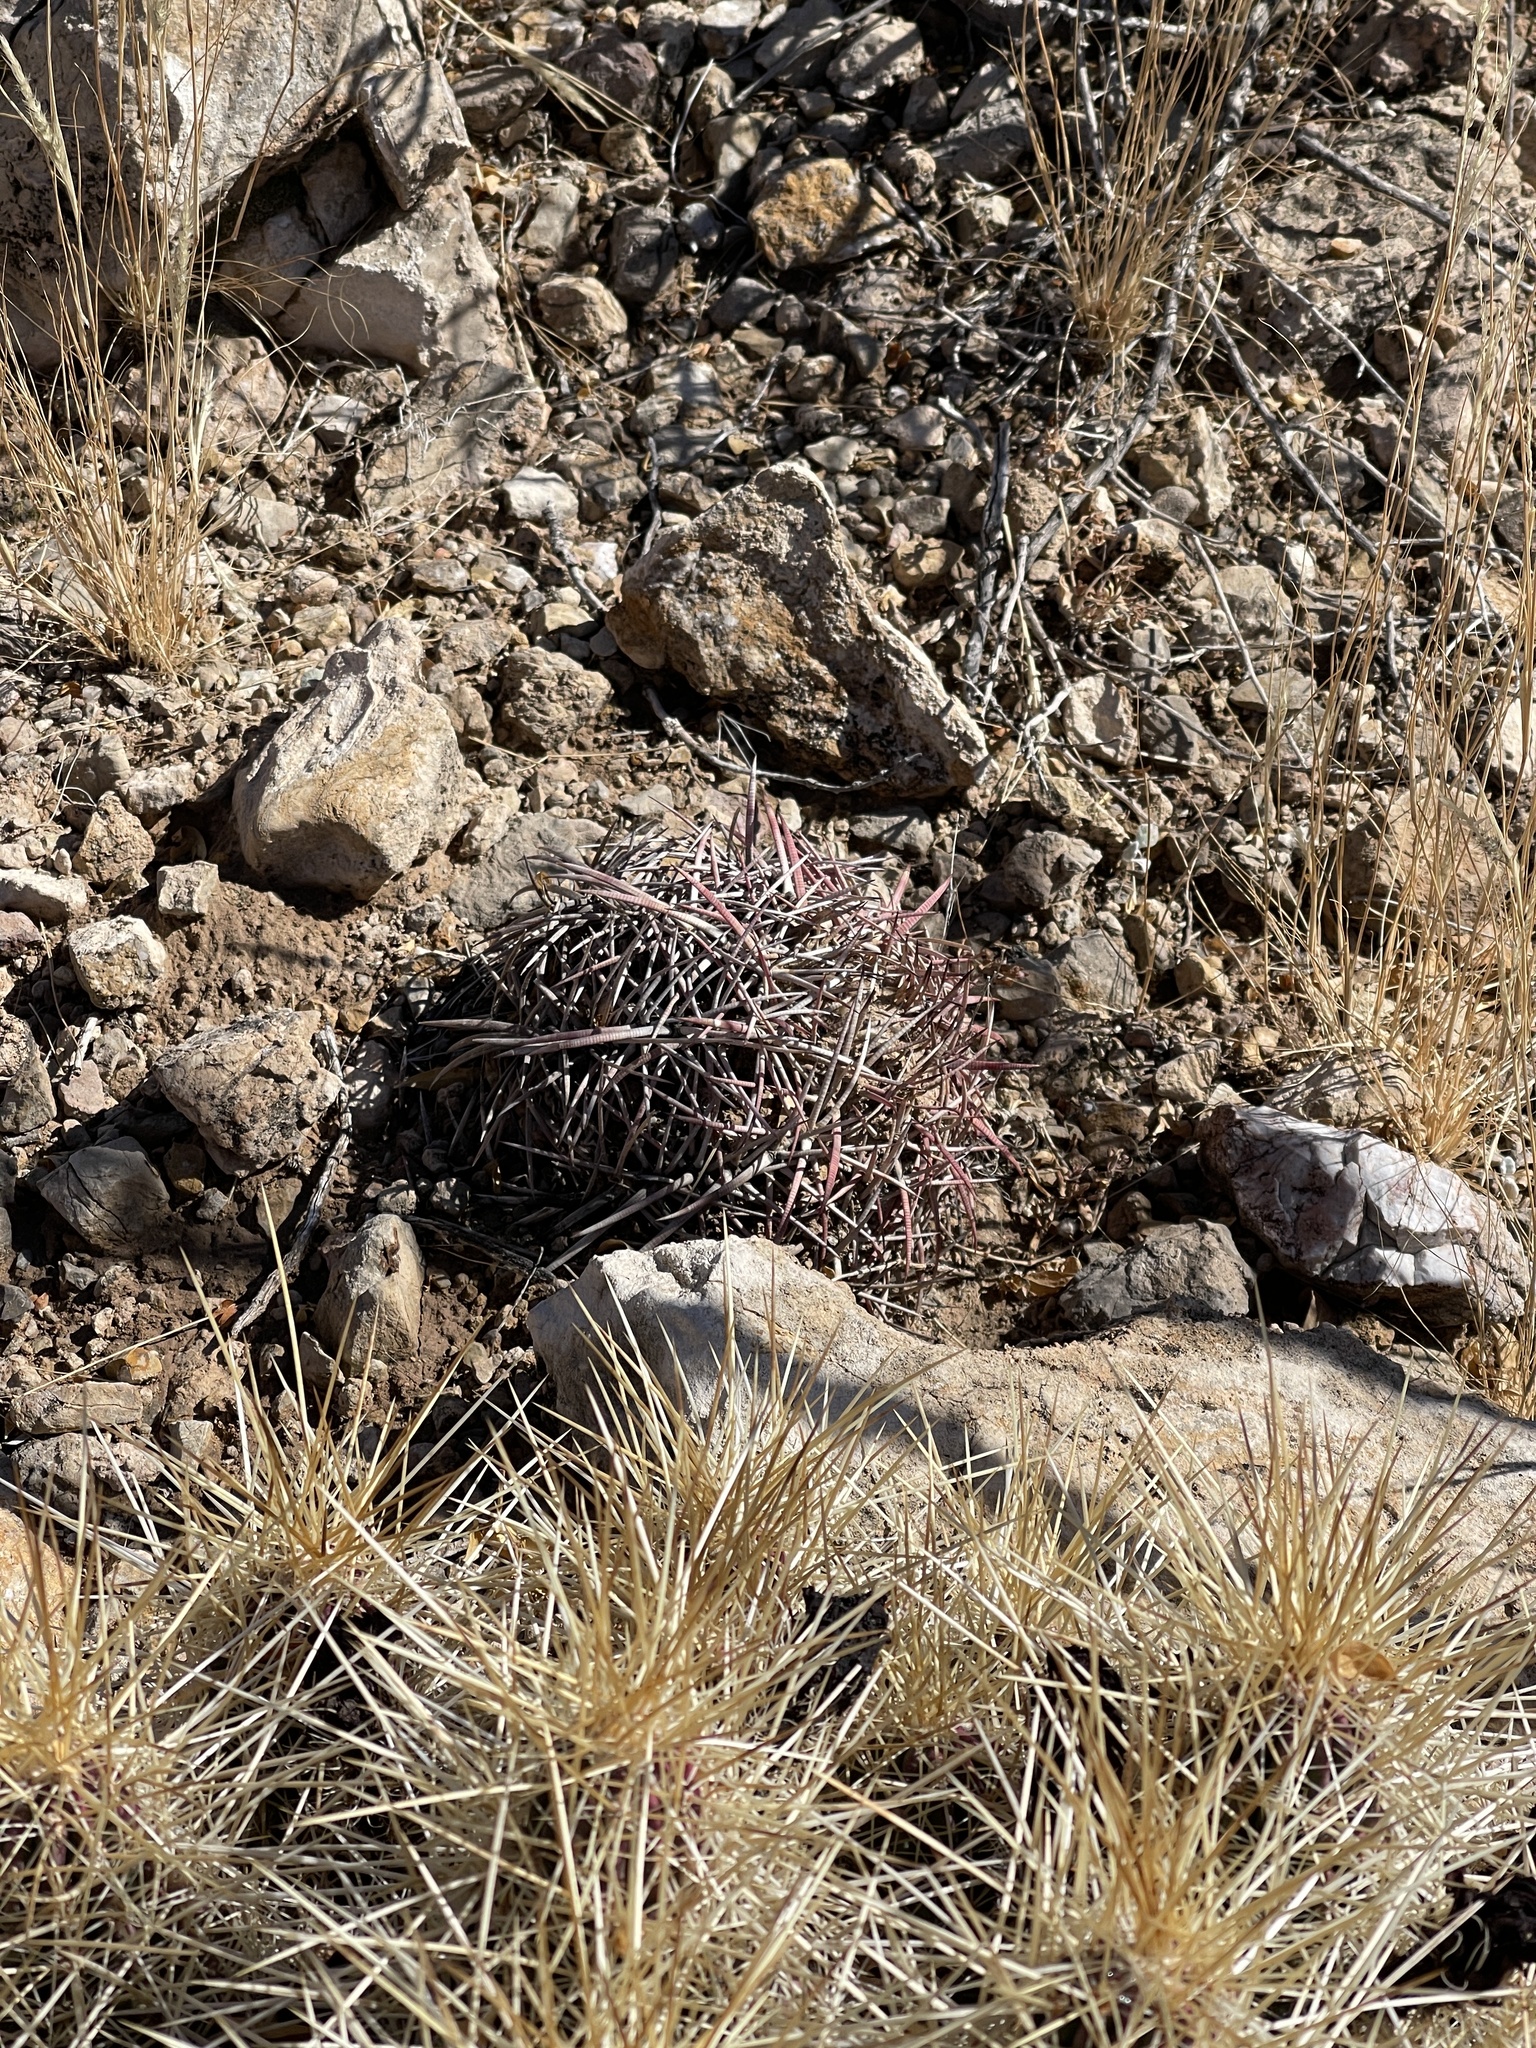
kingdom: Plantae
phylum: Tracheophyta
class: Magnoliopsida
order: Caryophyllales
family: Cactaceae
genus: Echinocactus
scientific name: Echinocactus horizonthalonius
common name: Devilshead
